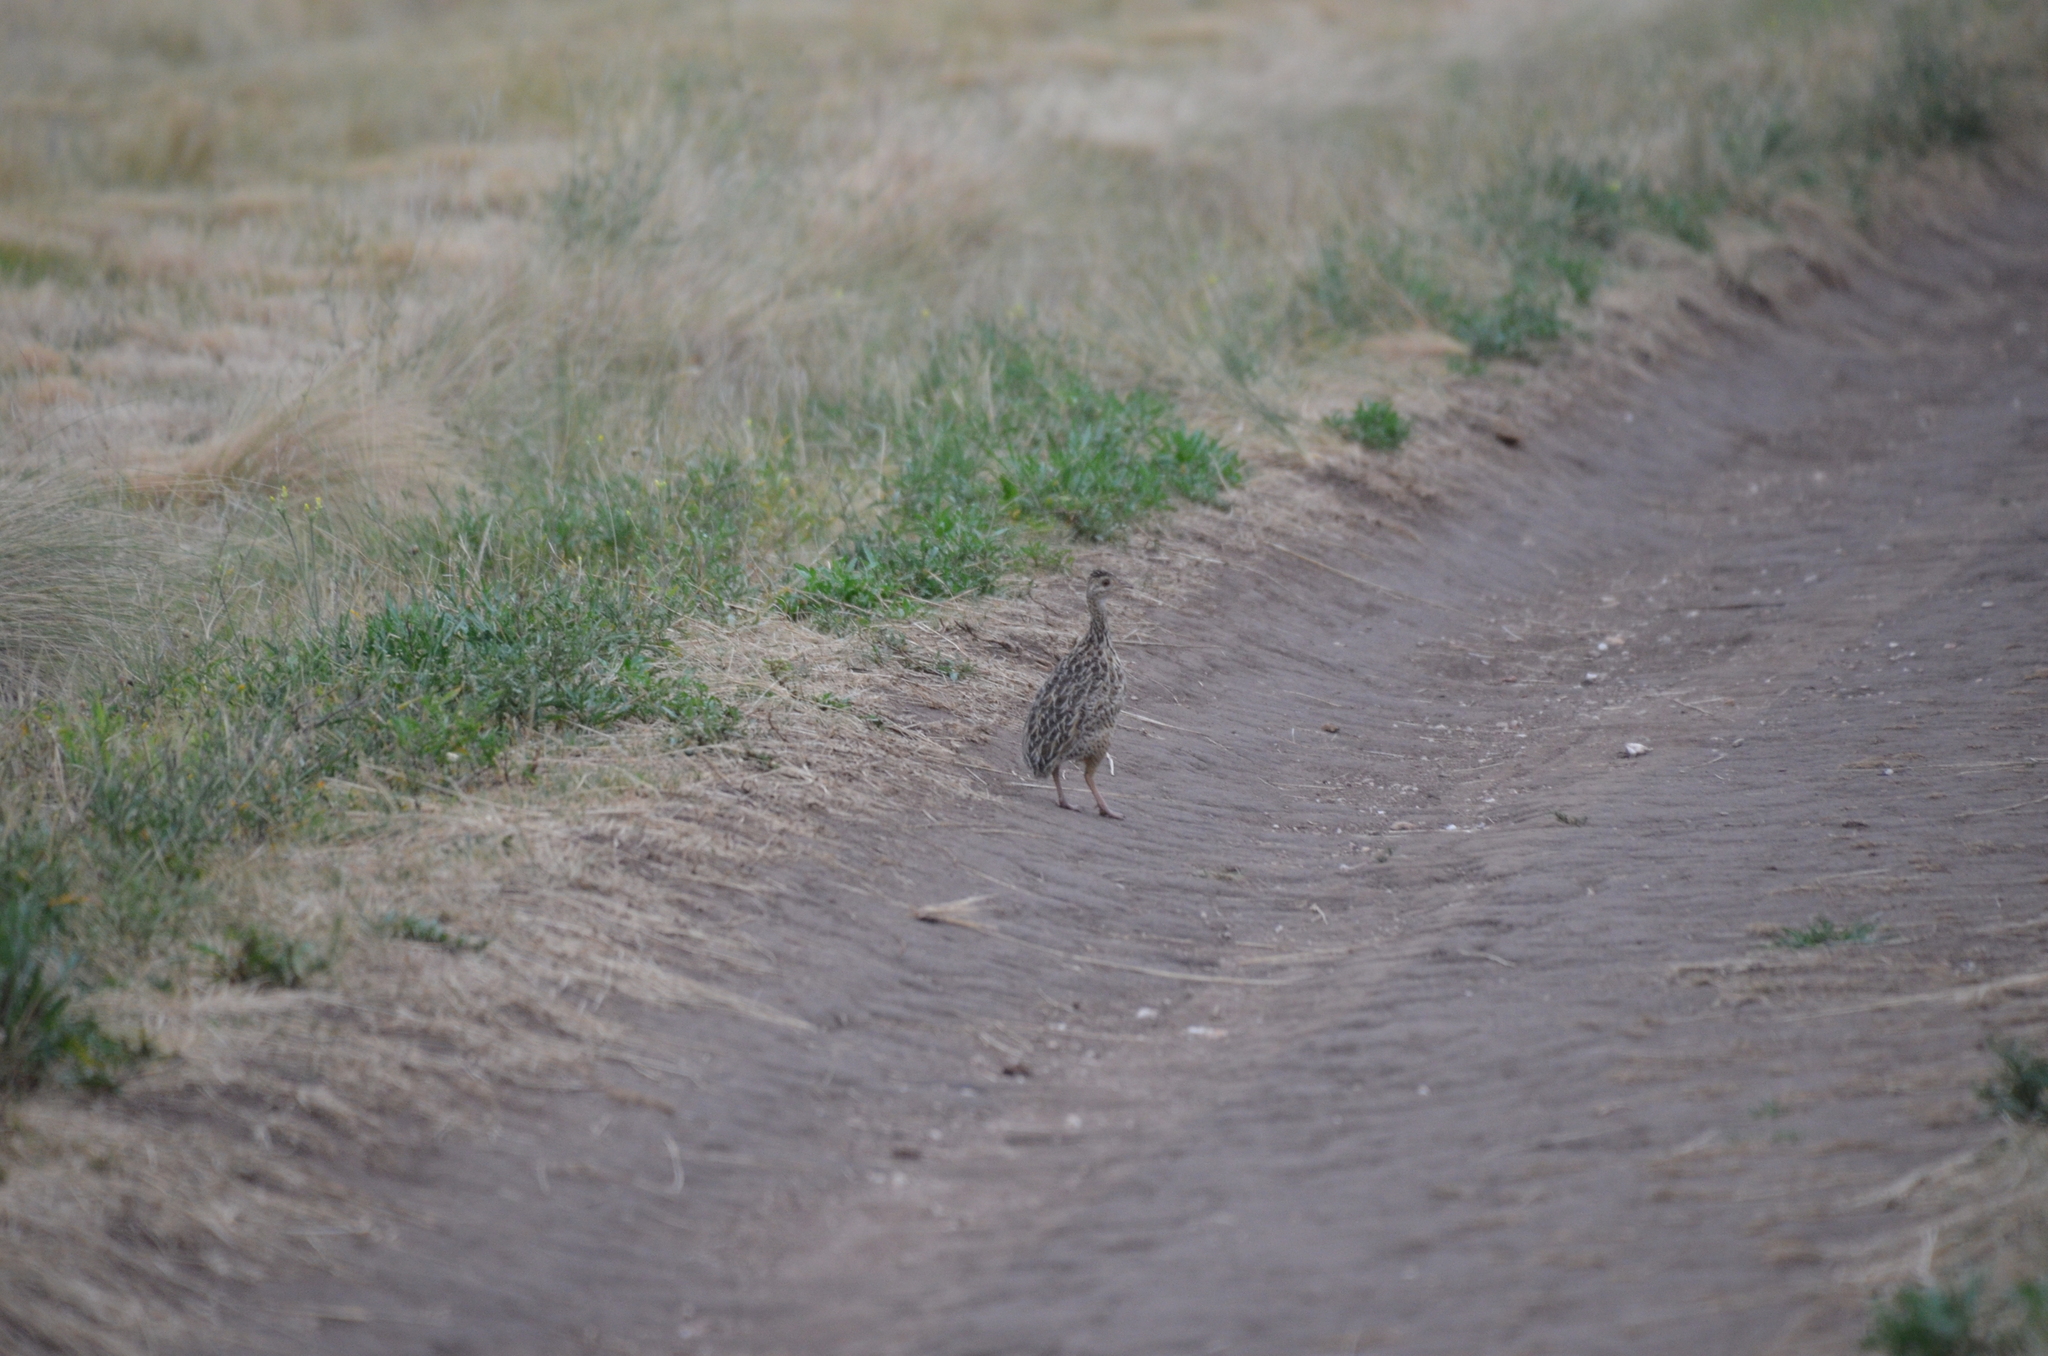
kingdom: Animalia
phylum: Chordata
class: Aves
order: Tinamiformes
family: Tinamidae
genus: Nothura
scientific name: Nothura maculosa
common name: Spotted nothura
